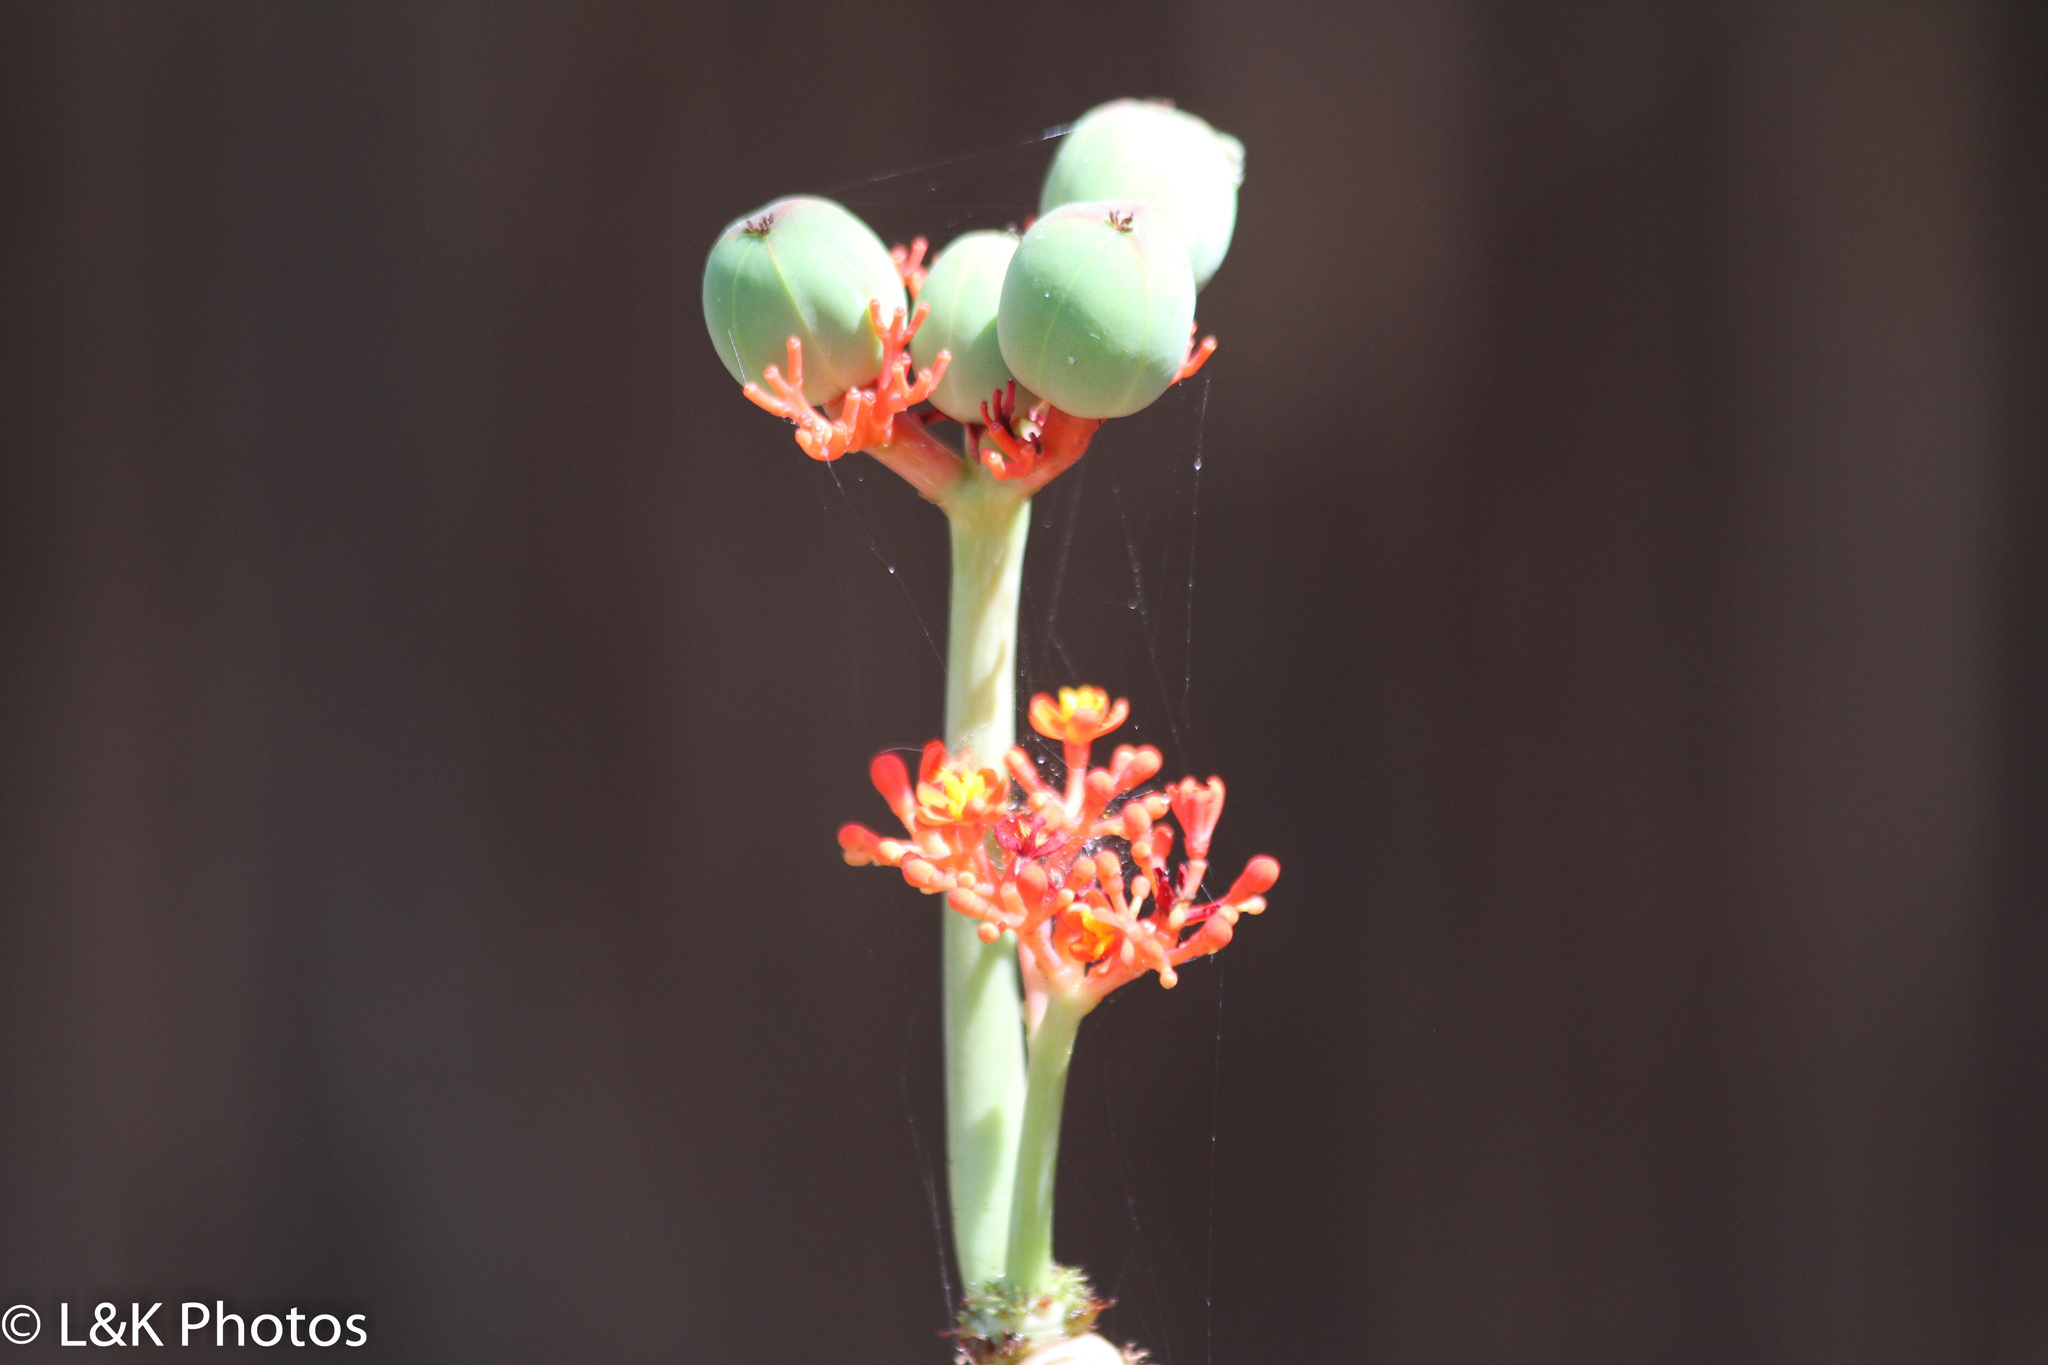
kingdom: Plantae
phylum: Tracheophyta
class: Magnoliopsida
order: Malpighiales
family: Euphorbiaceae
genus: Jatropha
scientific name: Jatropha podagrica
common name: Gout stalk
